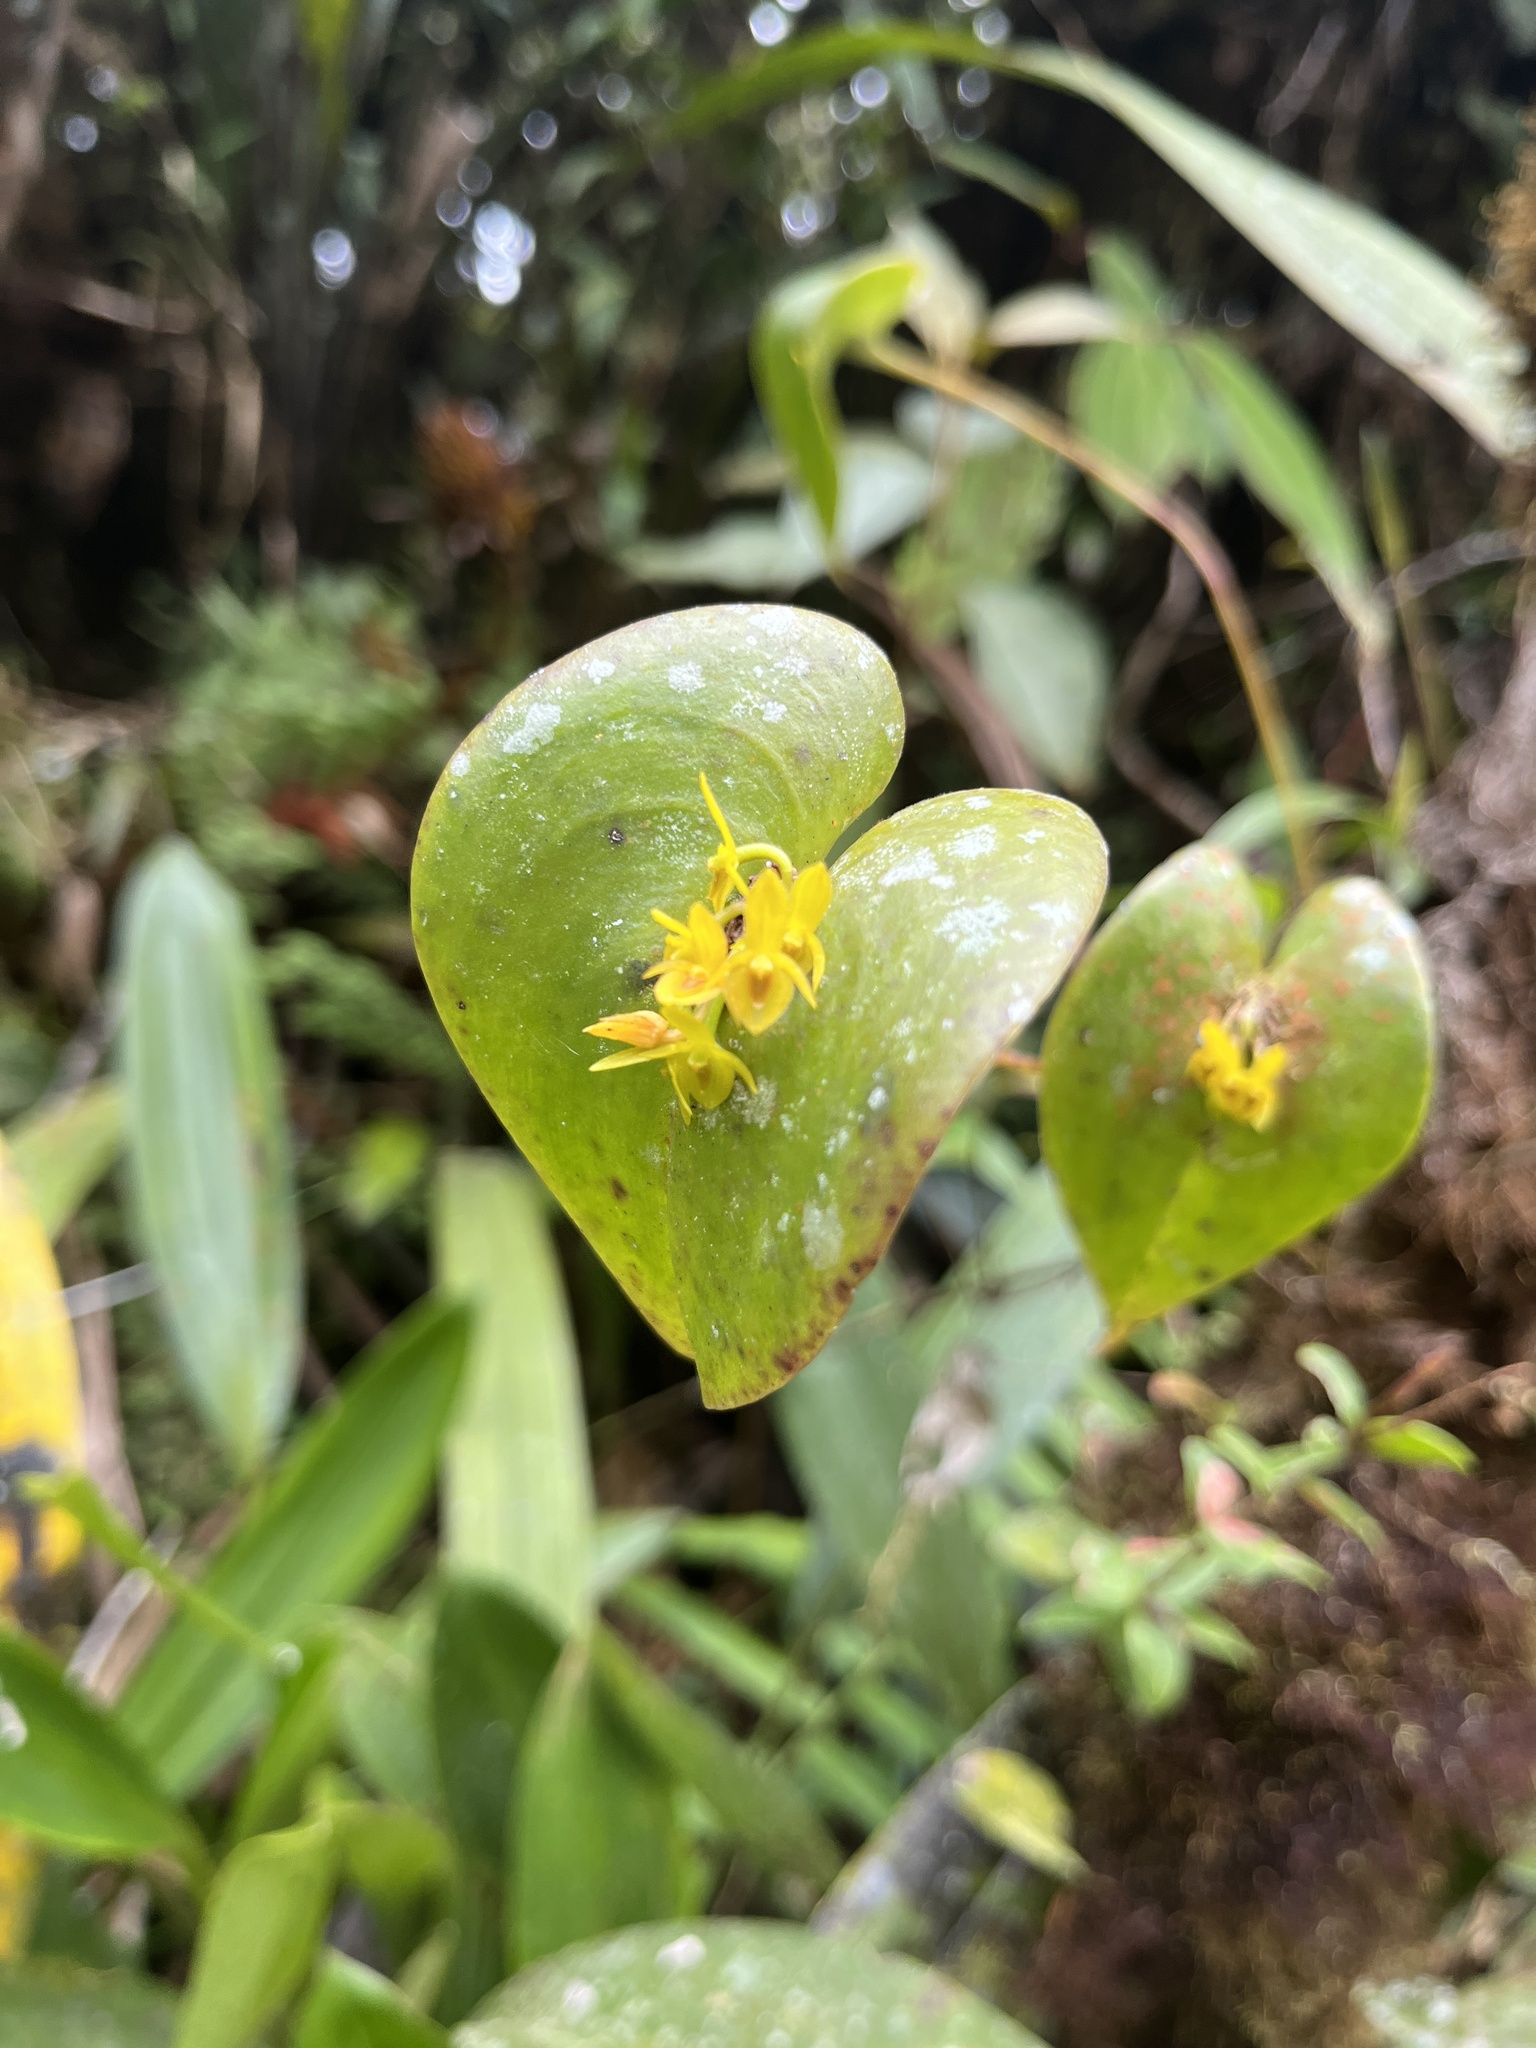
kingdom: Plantae
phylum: Tracheophyta
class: Liliopsida
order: Asparagales
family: Orchidaceae
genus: Pleurothallis
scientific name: Pleurothallis cordata
